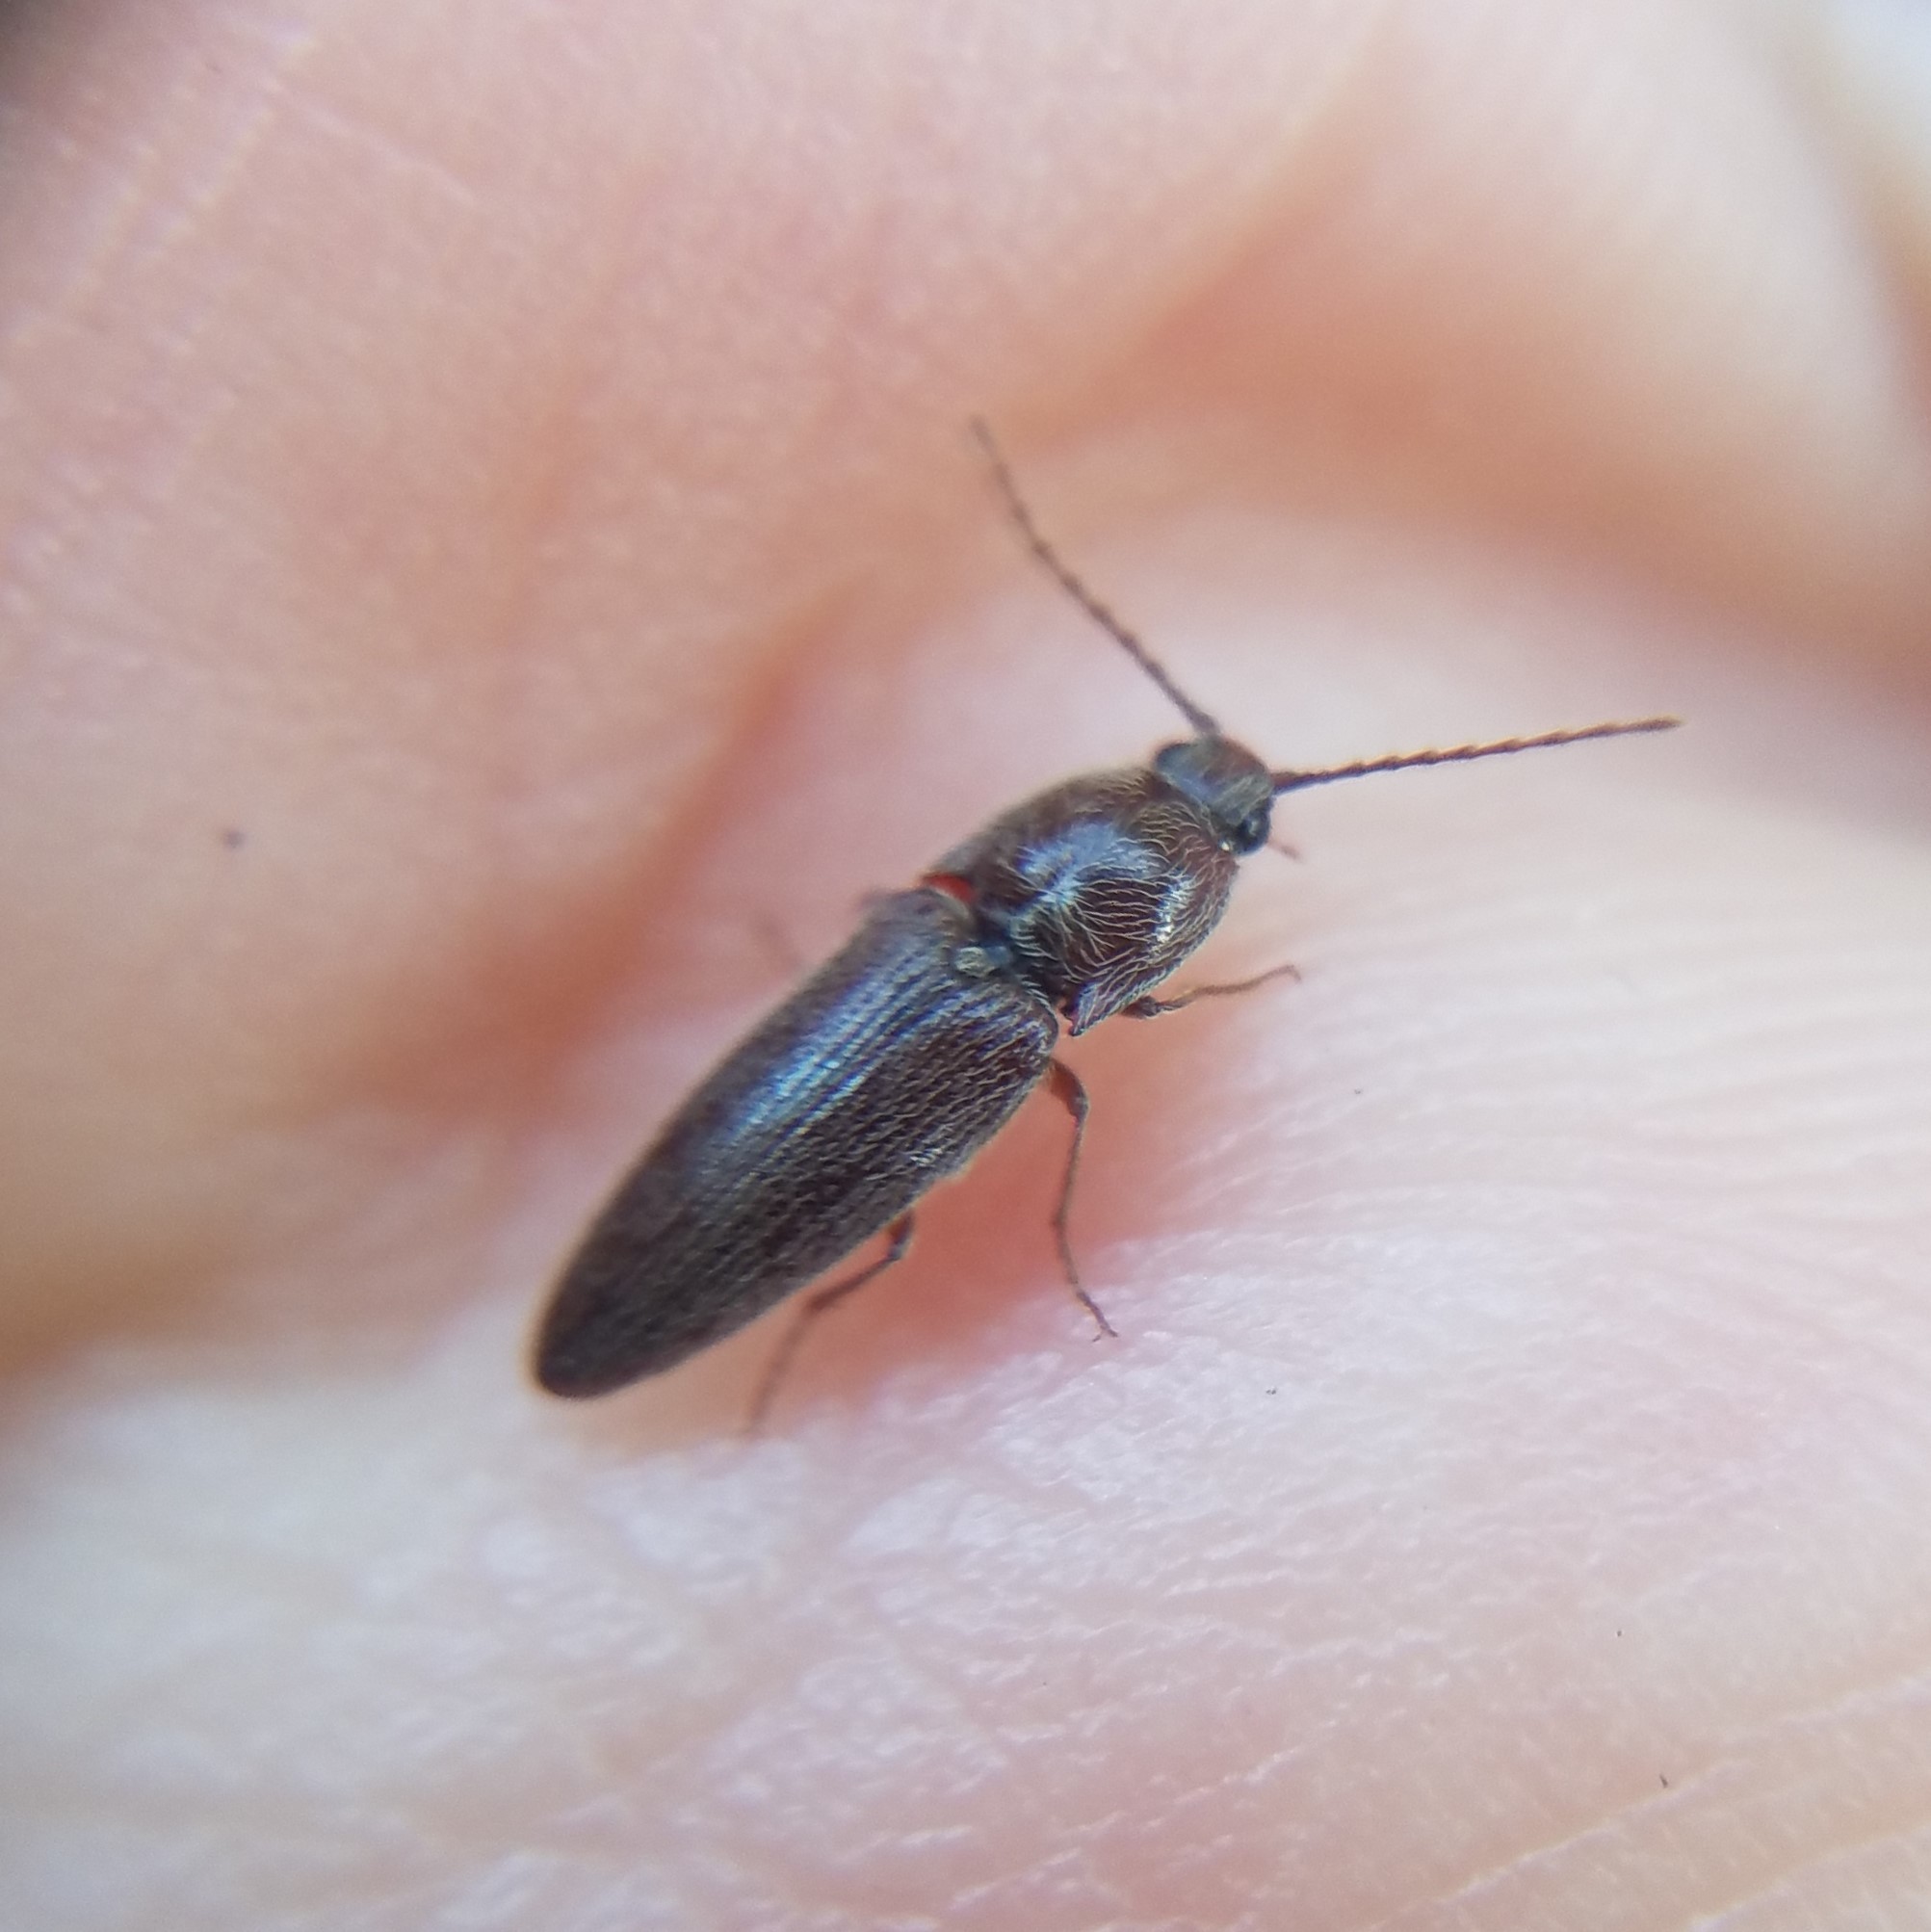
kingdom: Animalia
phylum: Arthropoda
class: Insecta
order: Coleoptera
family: Elateridae
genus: Melanotus
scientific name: Melanotus americanus
